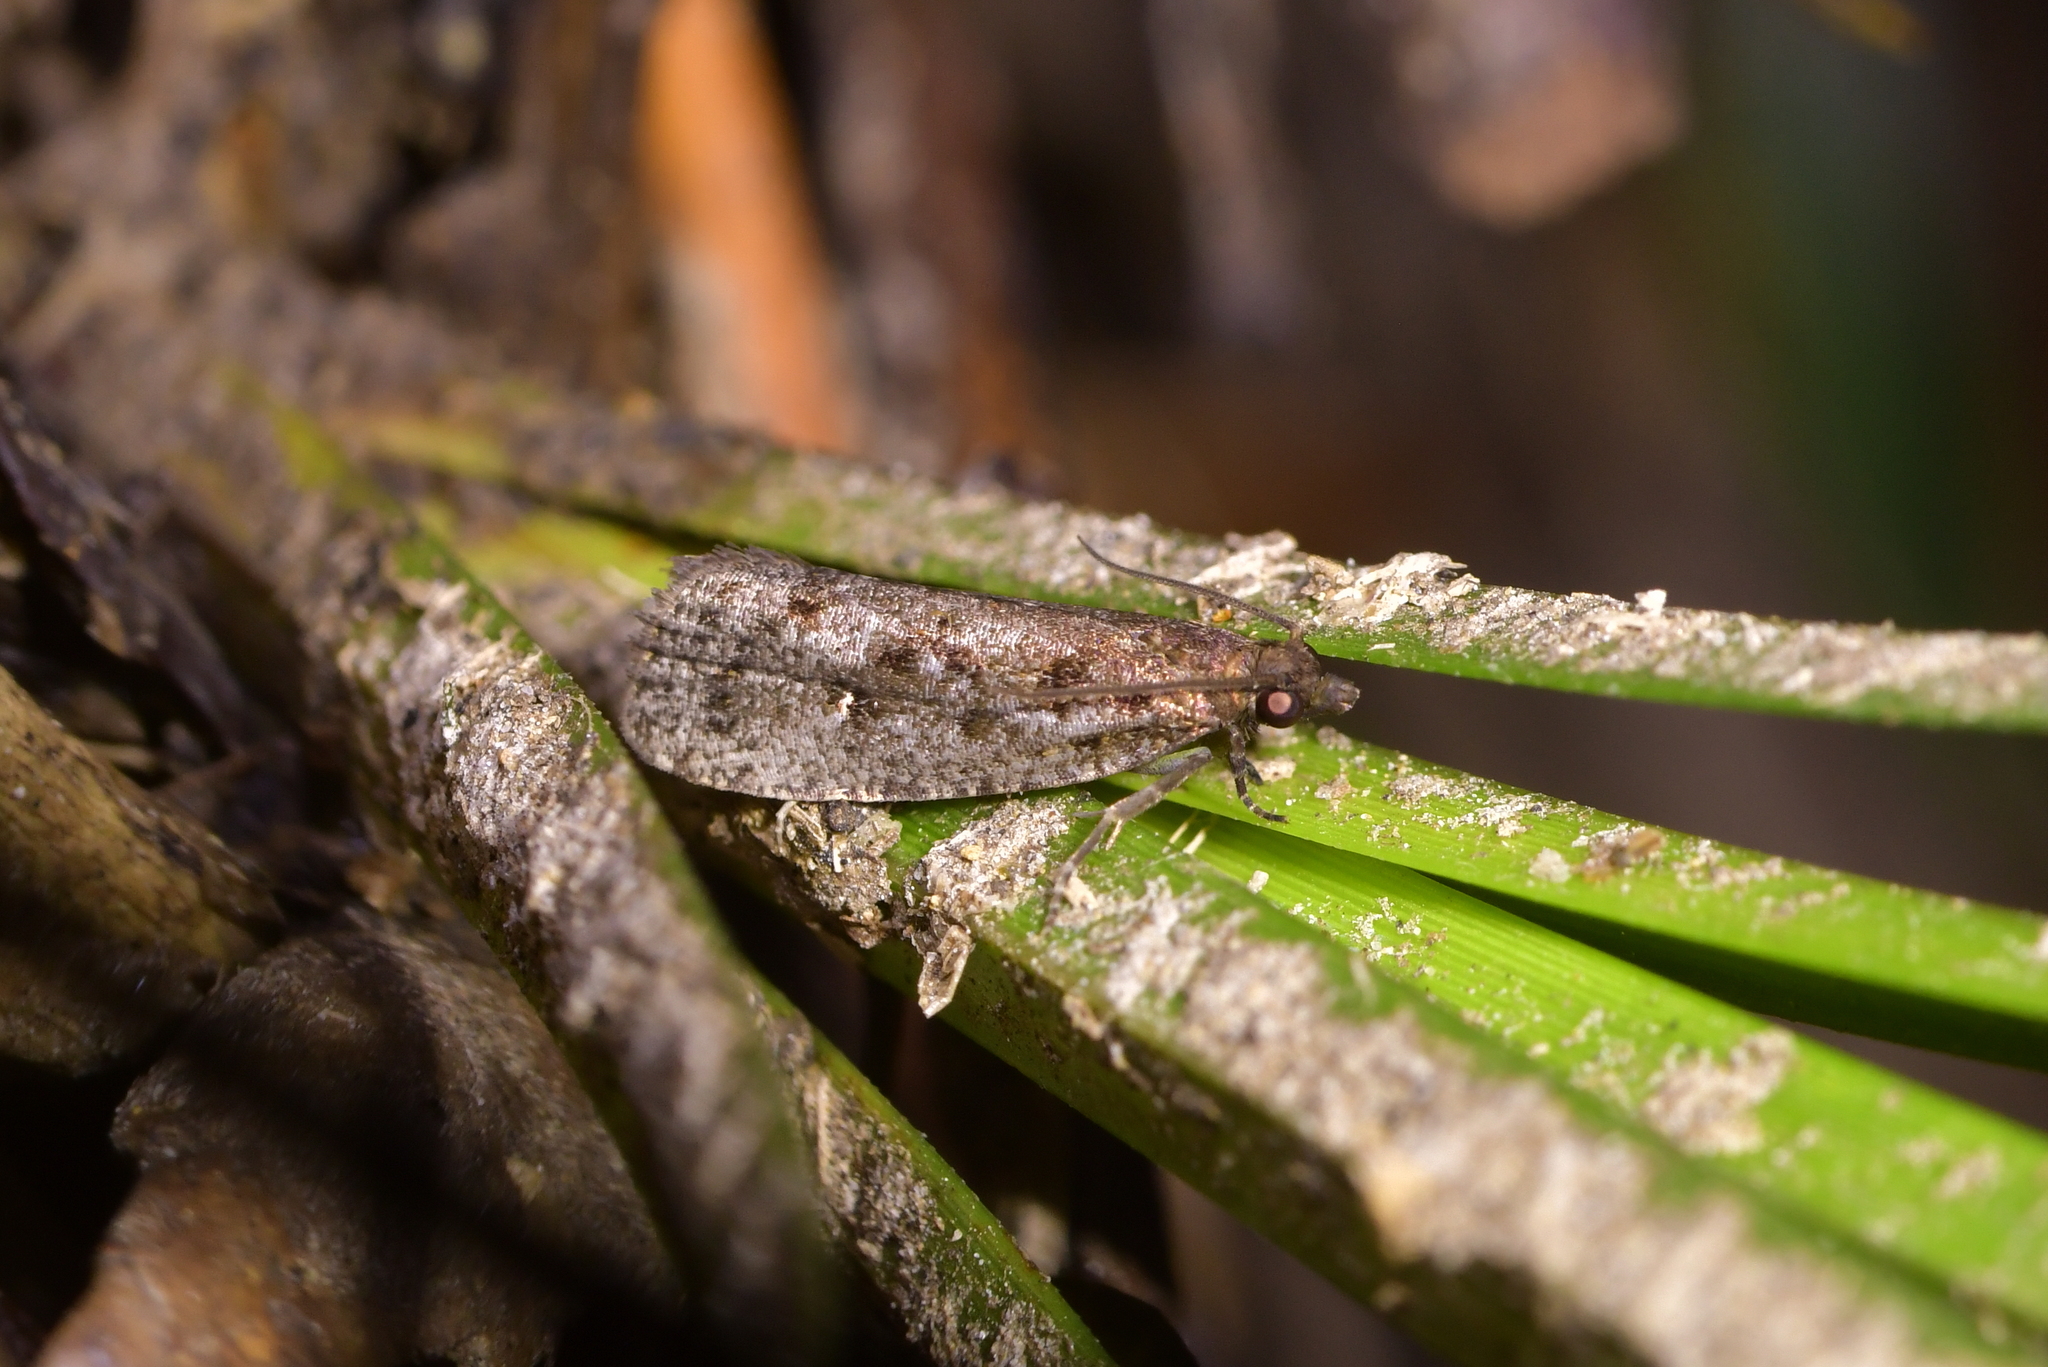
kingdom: Animalia
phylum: Arthropoda
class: Insecta
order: Lepidoptera
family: Tortricidae
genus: Cryptaspasma
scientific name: Cryptaspasma querula
